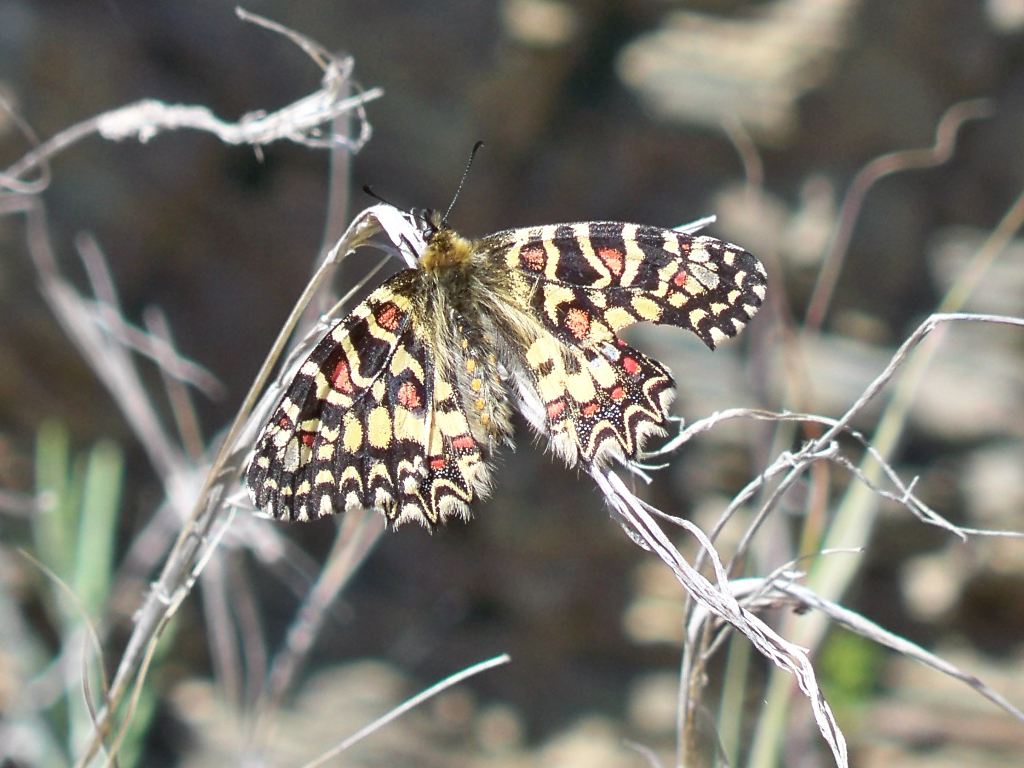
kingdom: Animalia
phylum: Arthropoda
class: Insecta
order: Lepidoptera
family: Papilionidae
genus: Zerynthia
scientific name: Zerynthia rumina
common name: Spanish festoon
